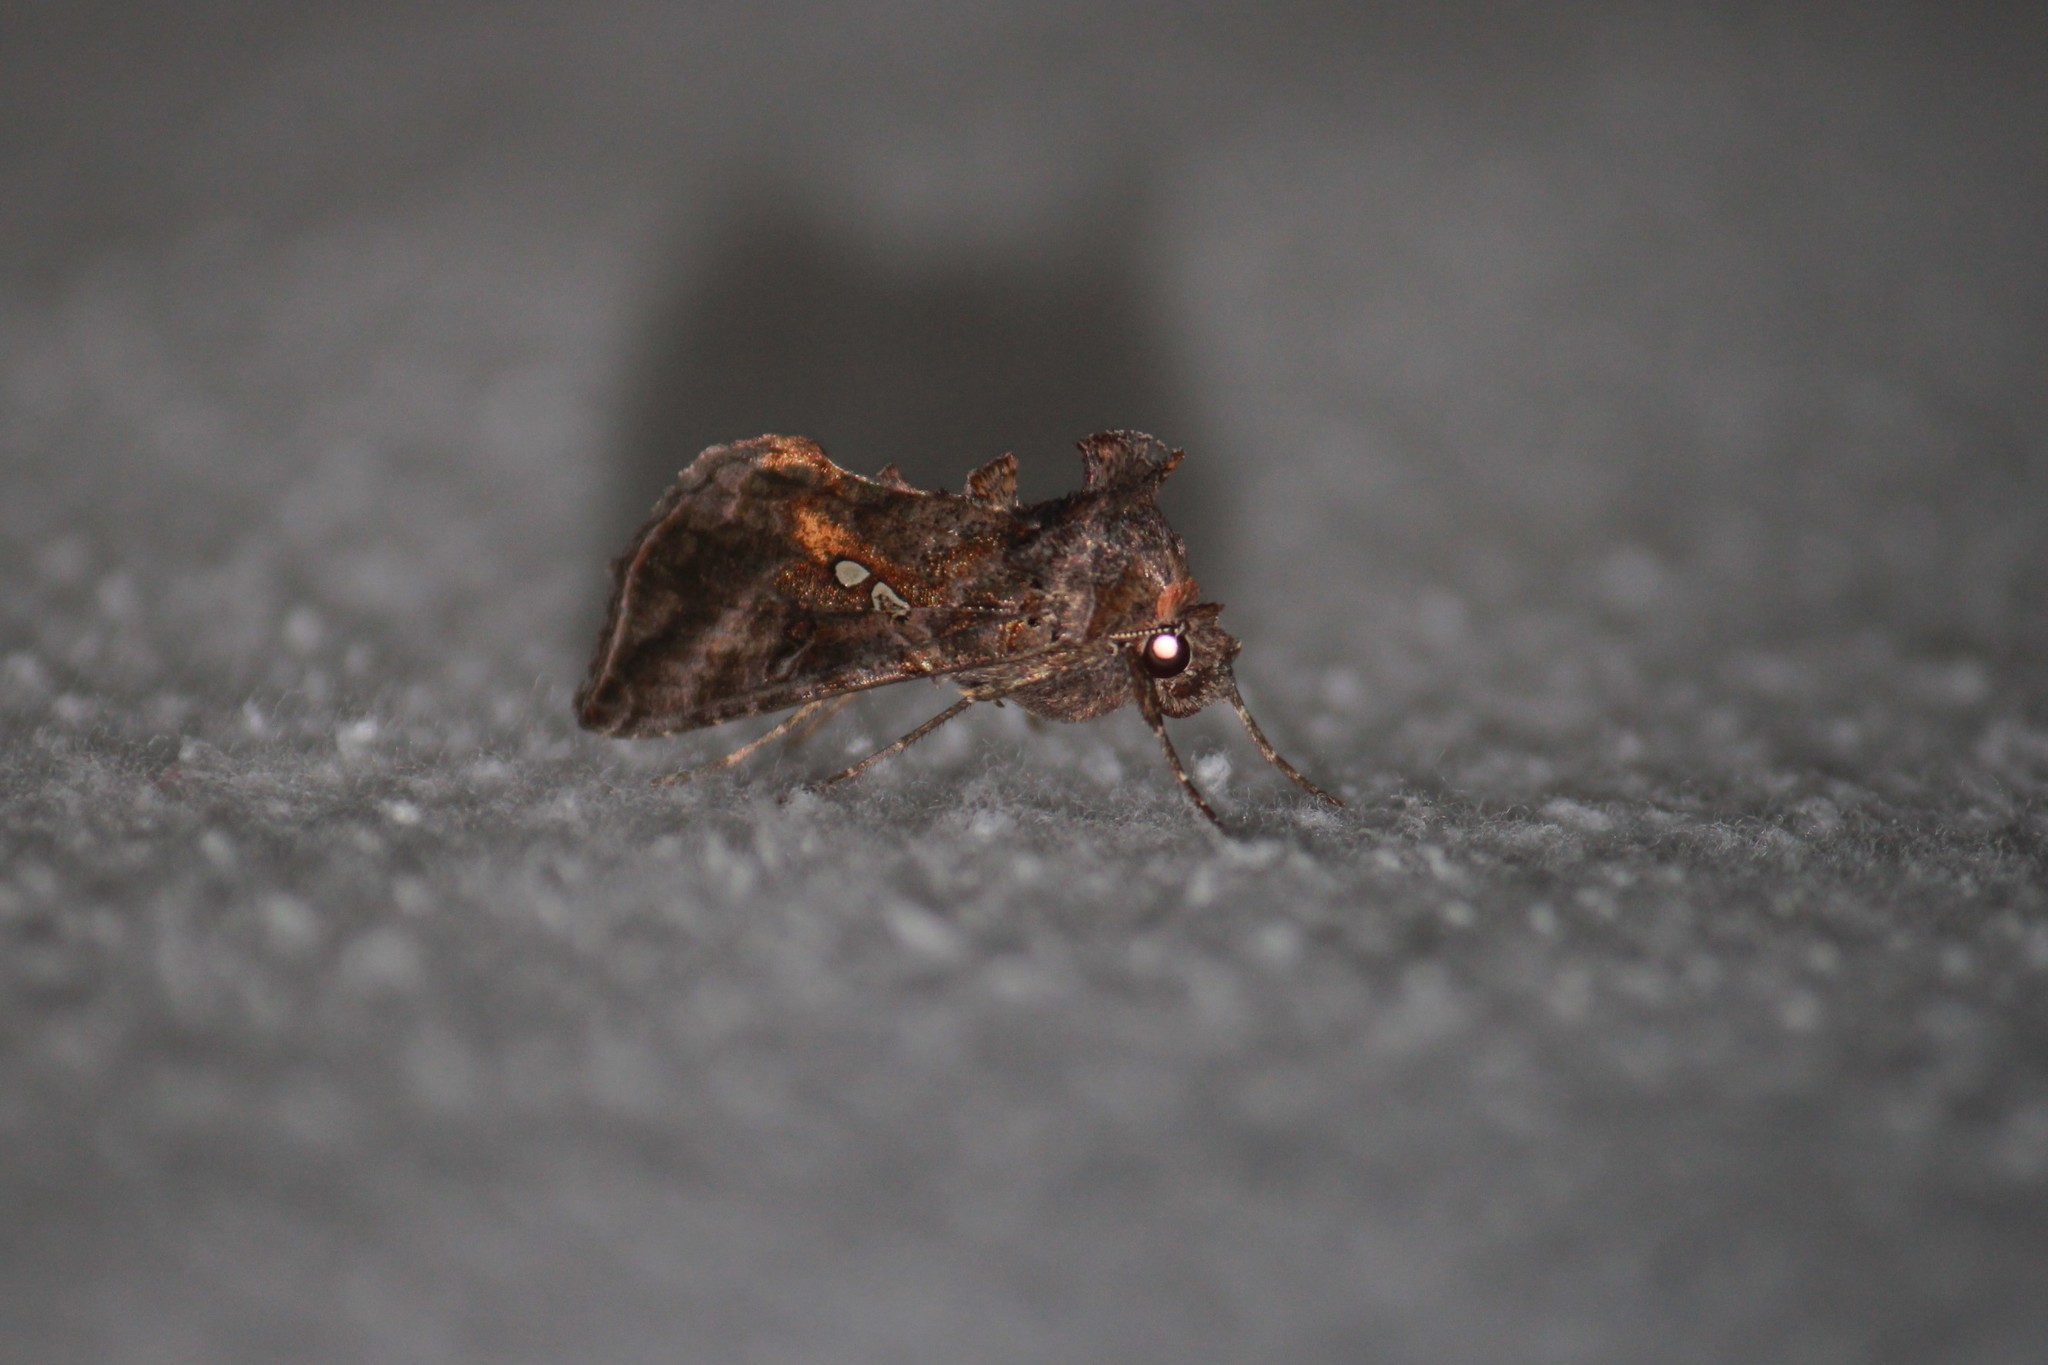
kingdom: Animalia
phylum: Arthropoda
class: Insecta
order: Lepidoptera
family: Noctuidae
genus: Autographa
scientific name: Autographa precationis
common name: Common looper moth
